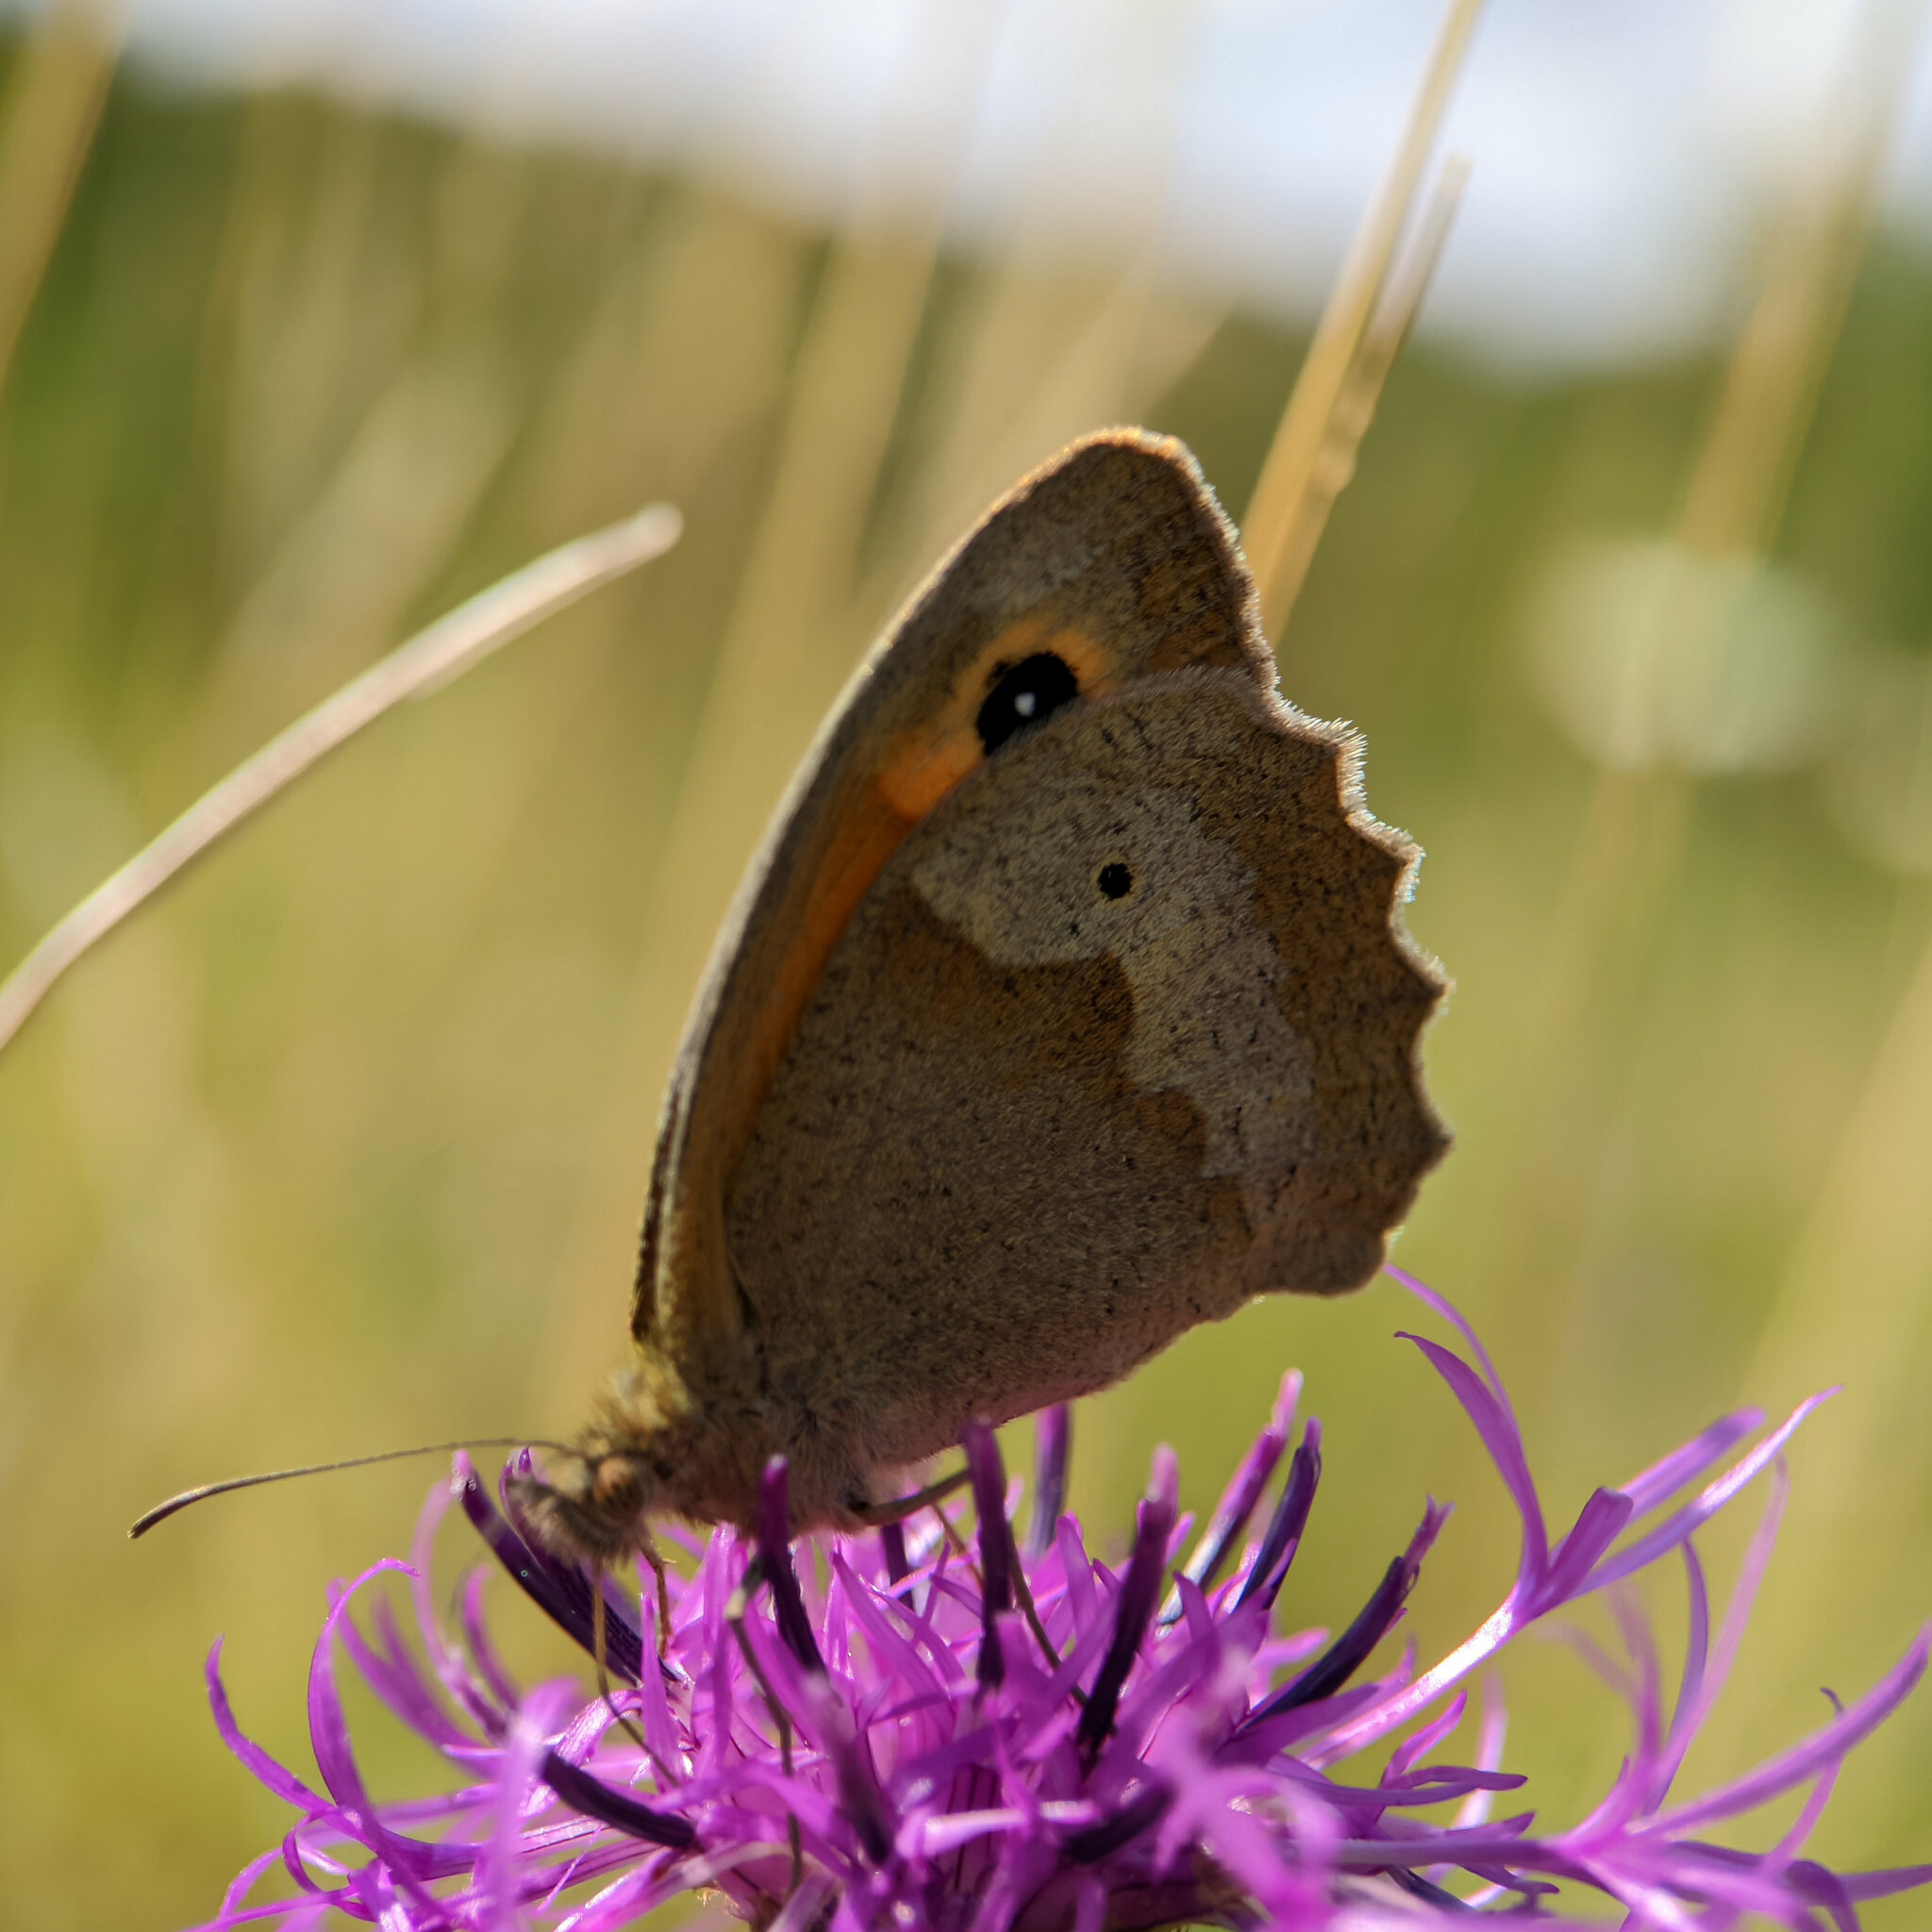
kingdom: Animalia
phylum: Arthropoda
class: Insecta
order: Lepidoptera
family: Nymphalidae
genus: Maniola
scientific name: Maniola jurtina
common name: Meadow brown
